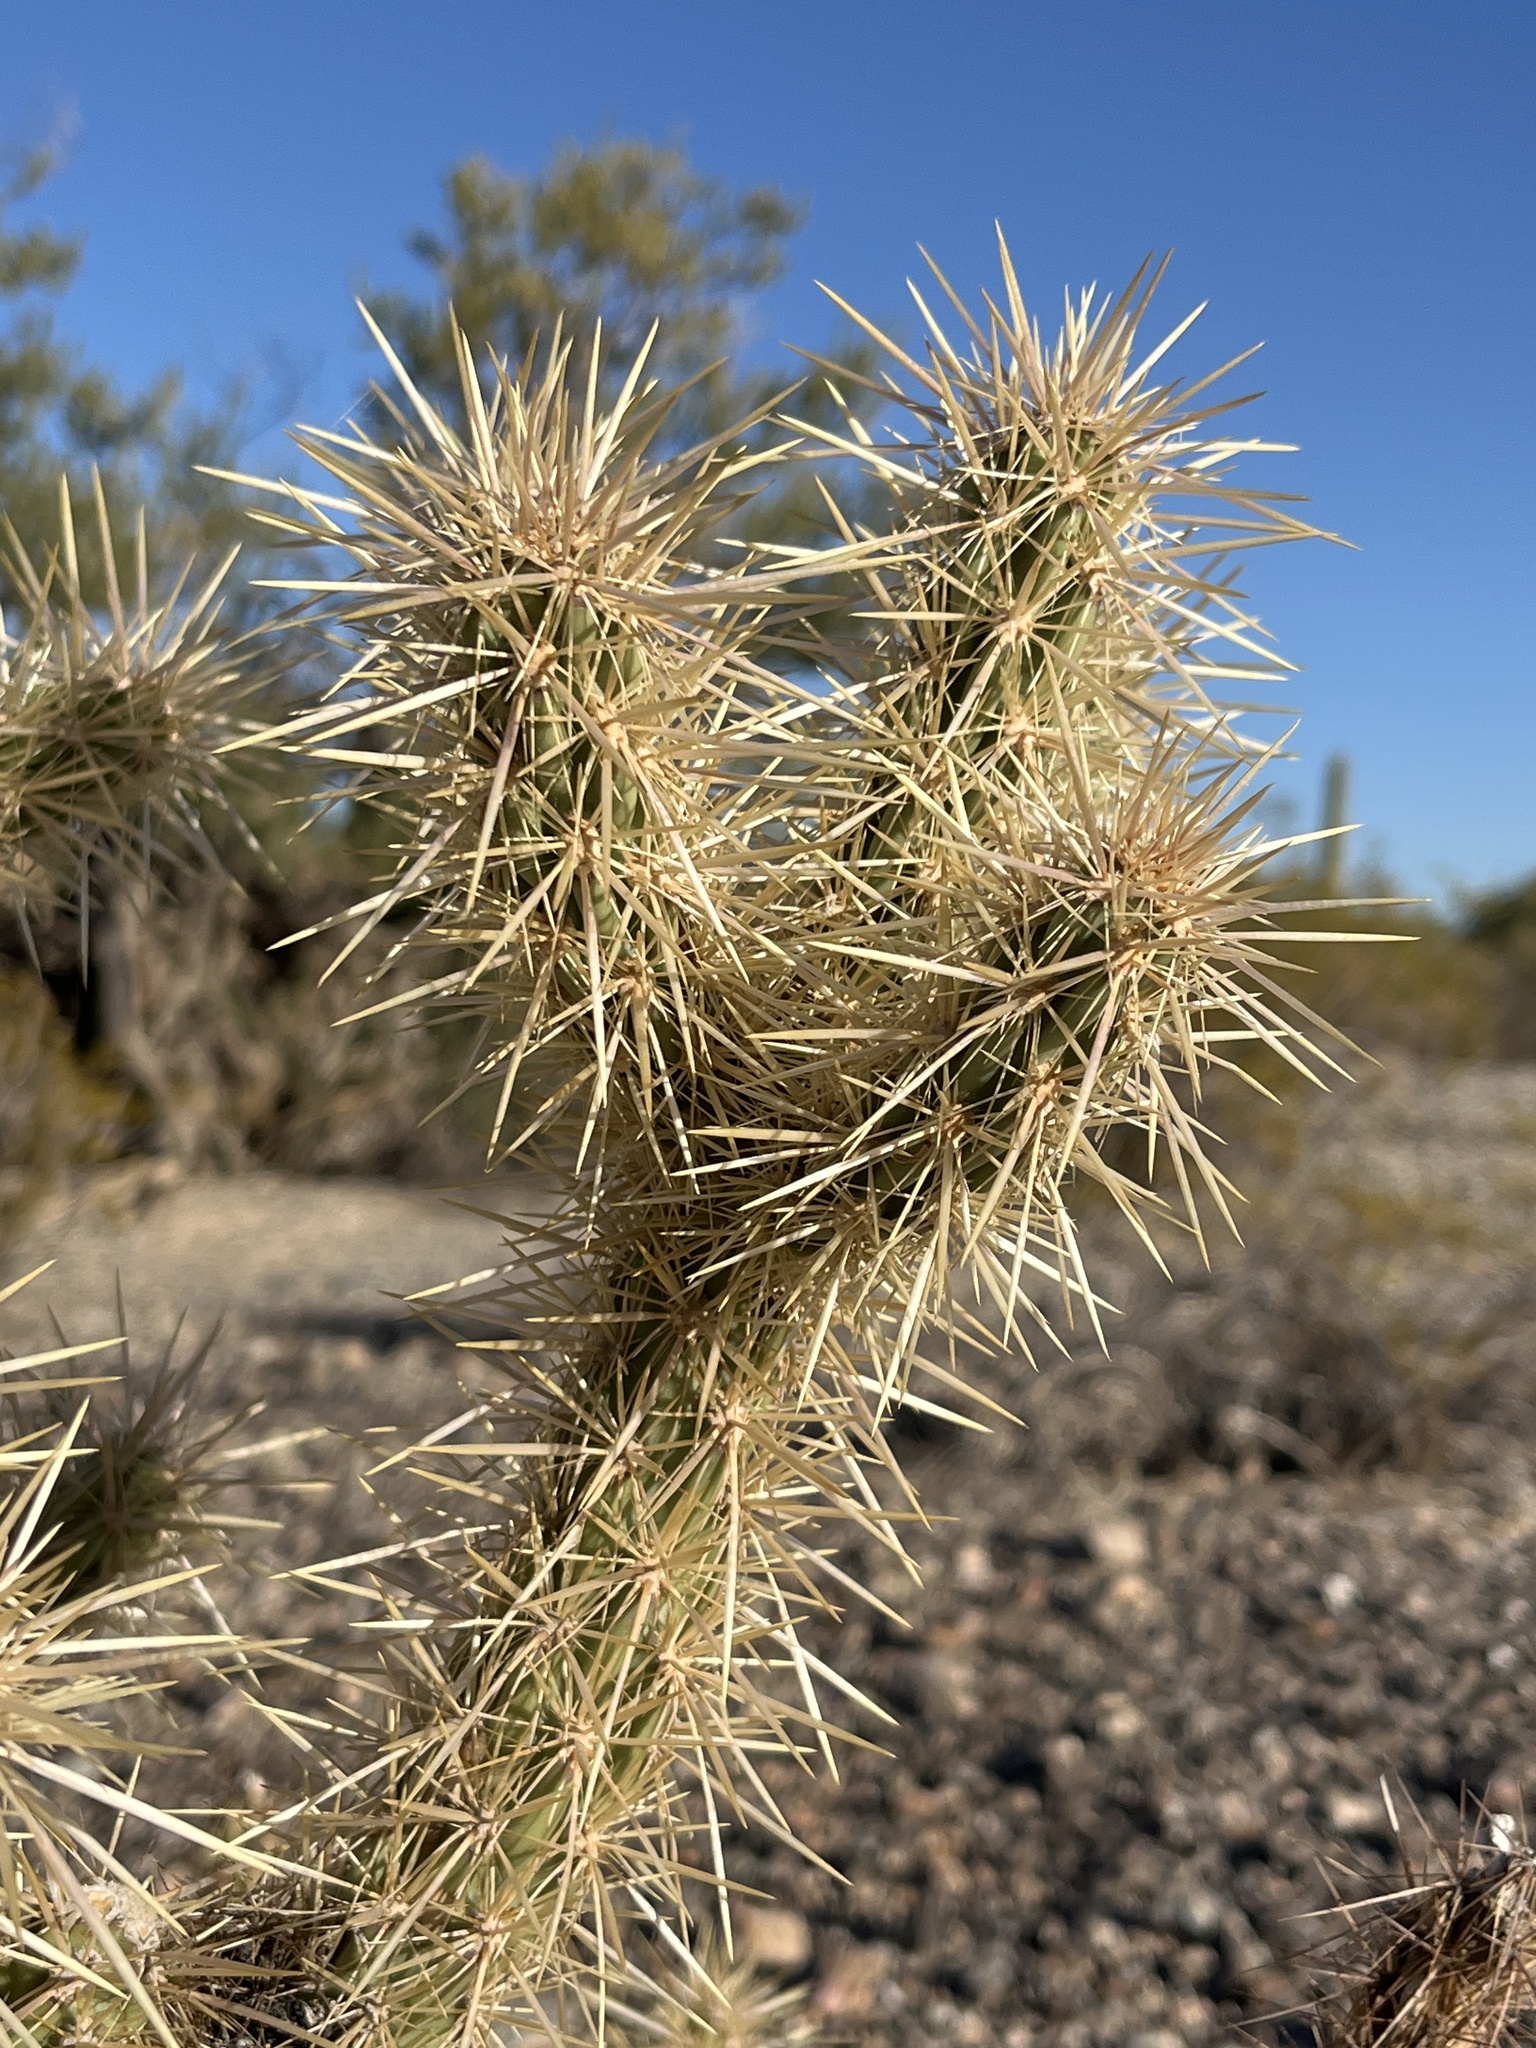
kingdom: Plantae
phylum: Tracheophyta
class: Magnoliopsida
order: Caryophyllales
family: Cactaceae
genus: Cylindropuntia
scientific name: Cylindropuntia acanthocarpa
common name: Buckhorn cholla
